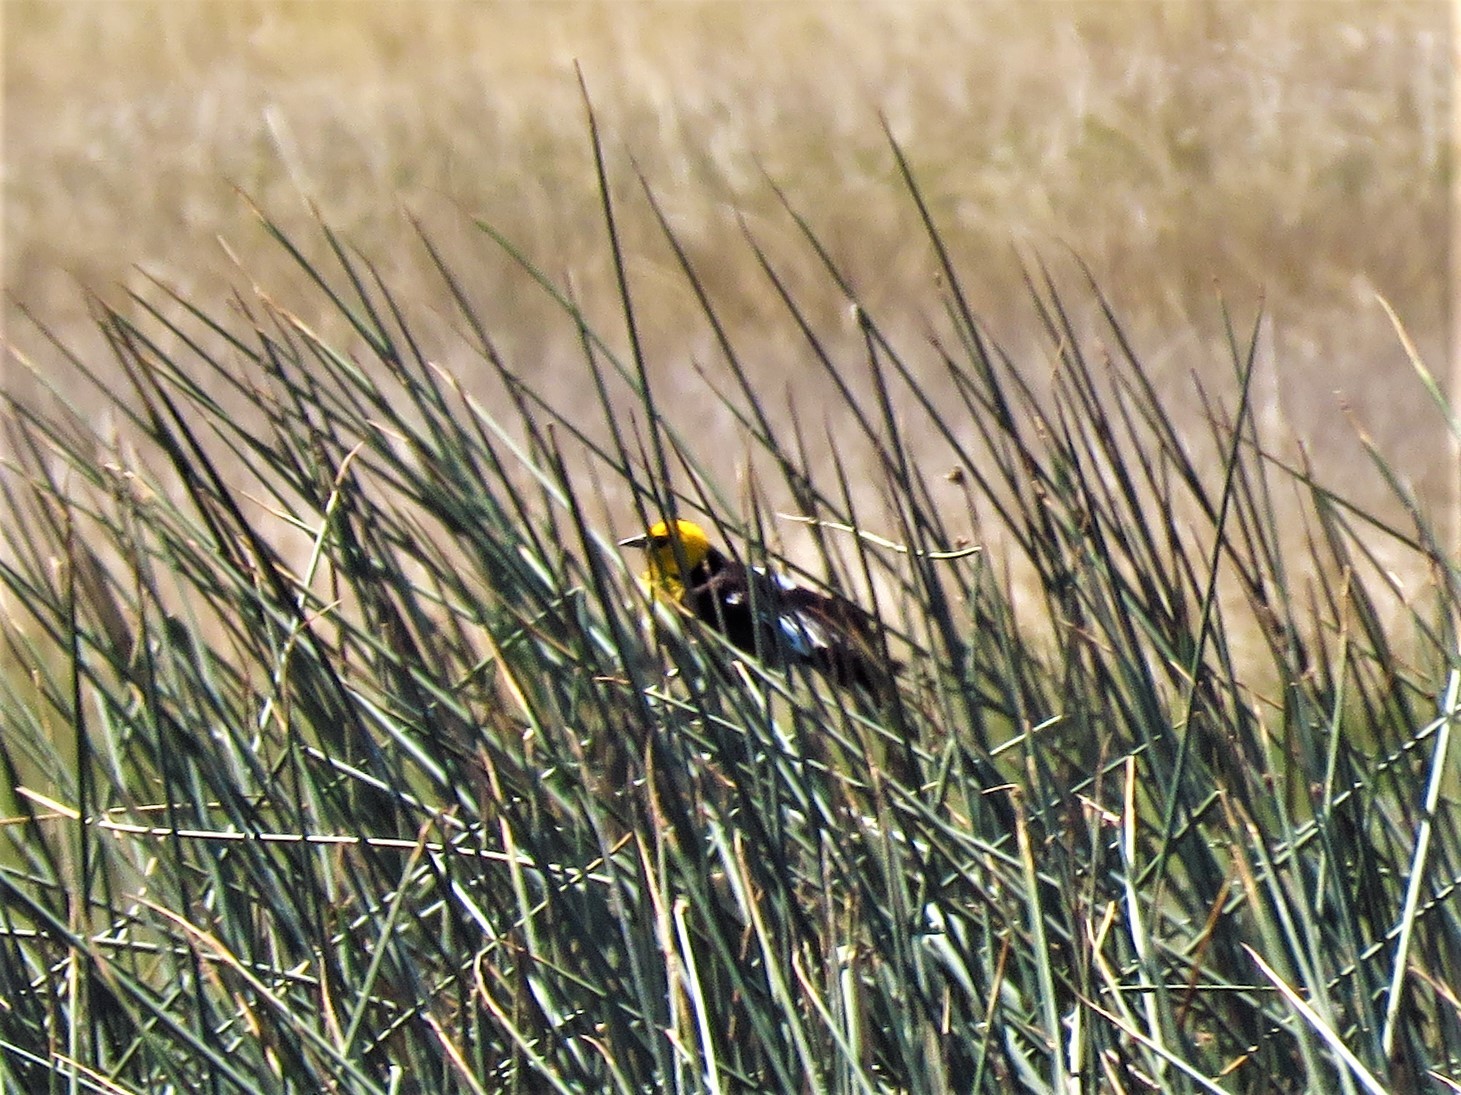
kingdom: Animalia
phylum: Chordata
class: Aves
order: Passeriformes
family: Icteridae
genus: Xanthocephalus
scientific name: Xanthocephalus xanthocephalus
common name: Yellow-headed blackbird
